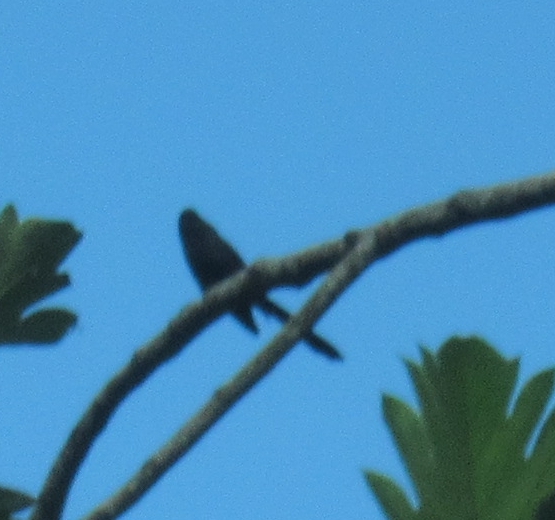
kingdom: Animalia
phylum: Chordata
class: Aves
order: Cuculiformes
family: Cuculidae
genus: Crotophaga
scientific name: Crotophaga ani
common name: Smooth-billed ani
